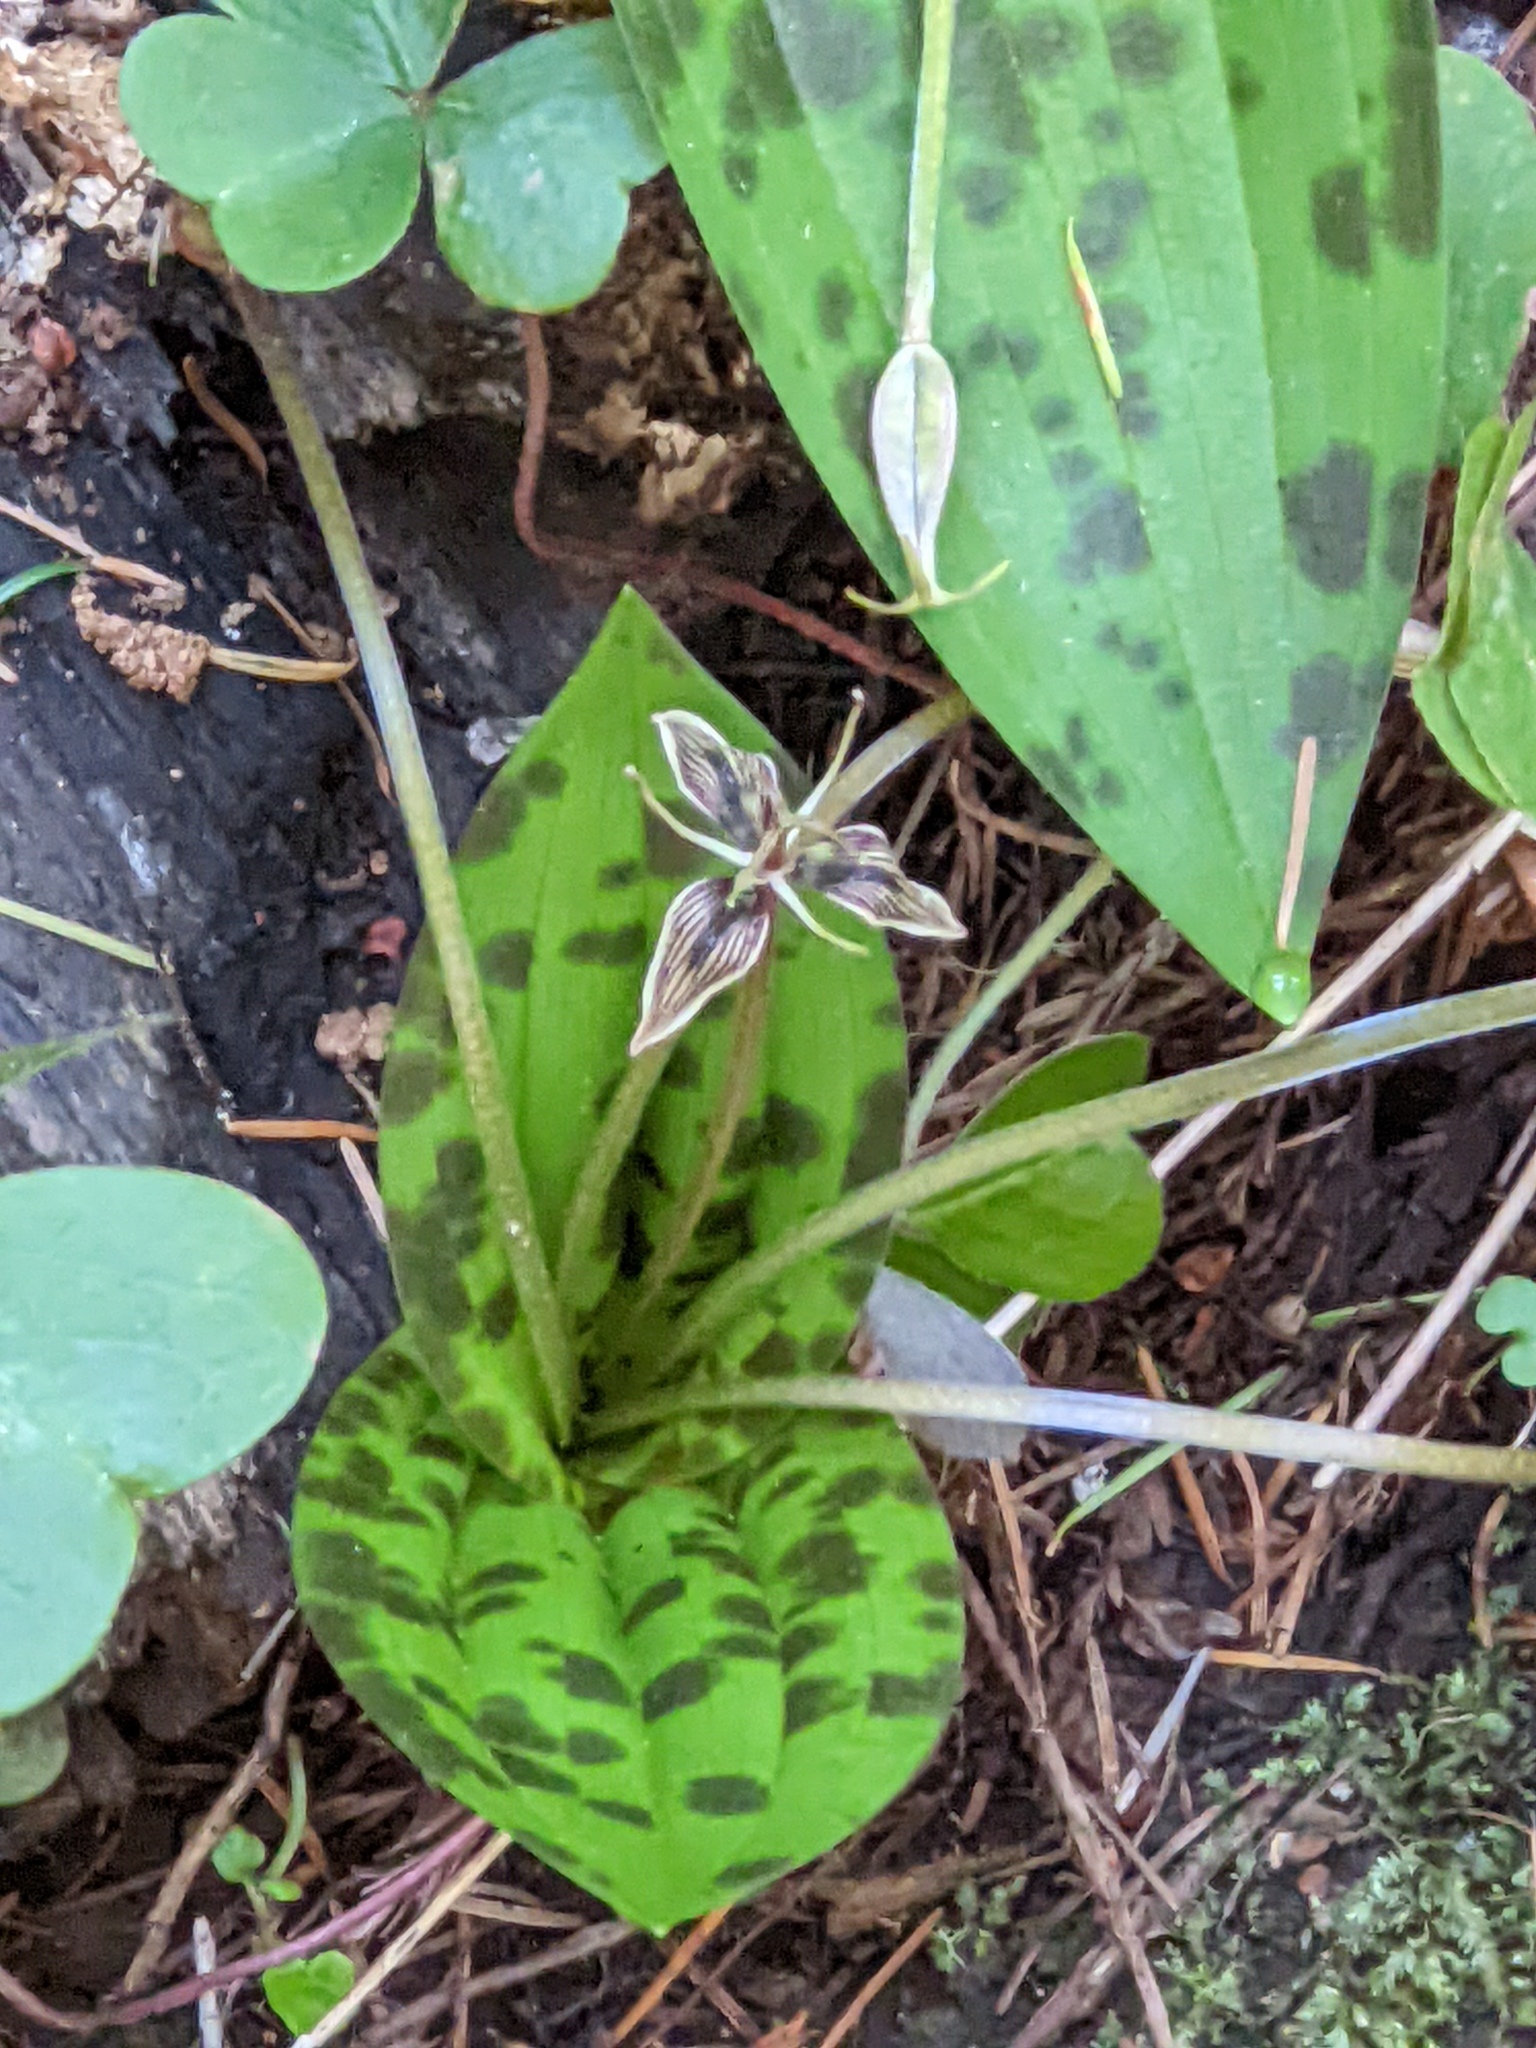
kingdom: Plantae
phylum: Tracheophyta
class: Liliopsida
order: Liliales
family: Liliaceae
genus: Scoliopus
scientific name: Scoliopus bigelovii
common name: Foetid adder's-tongue
